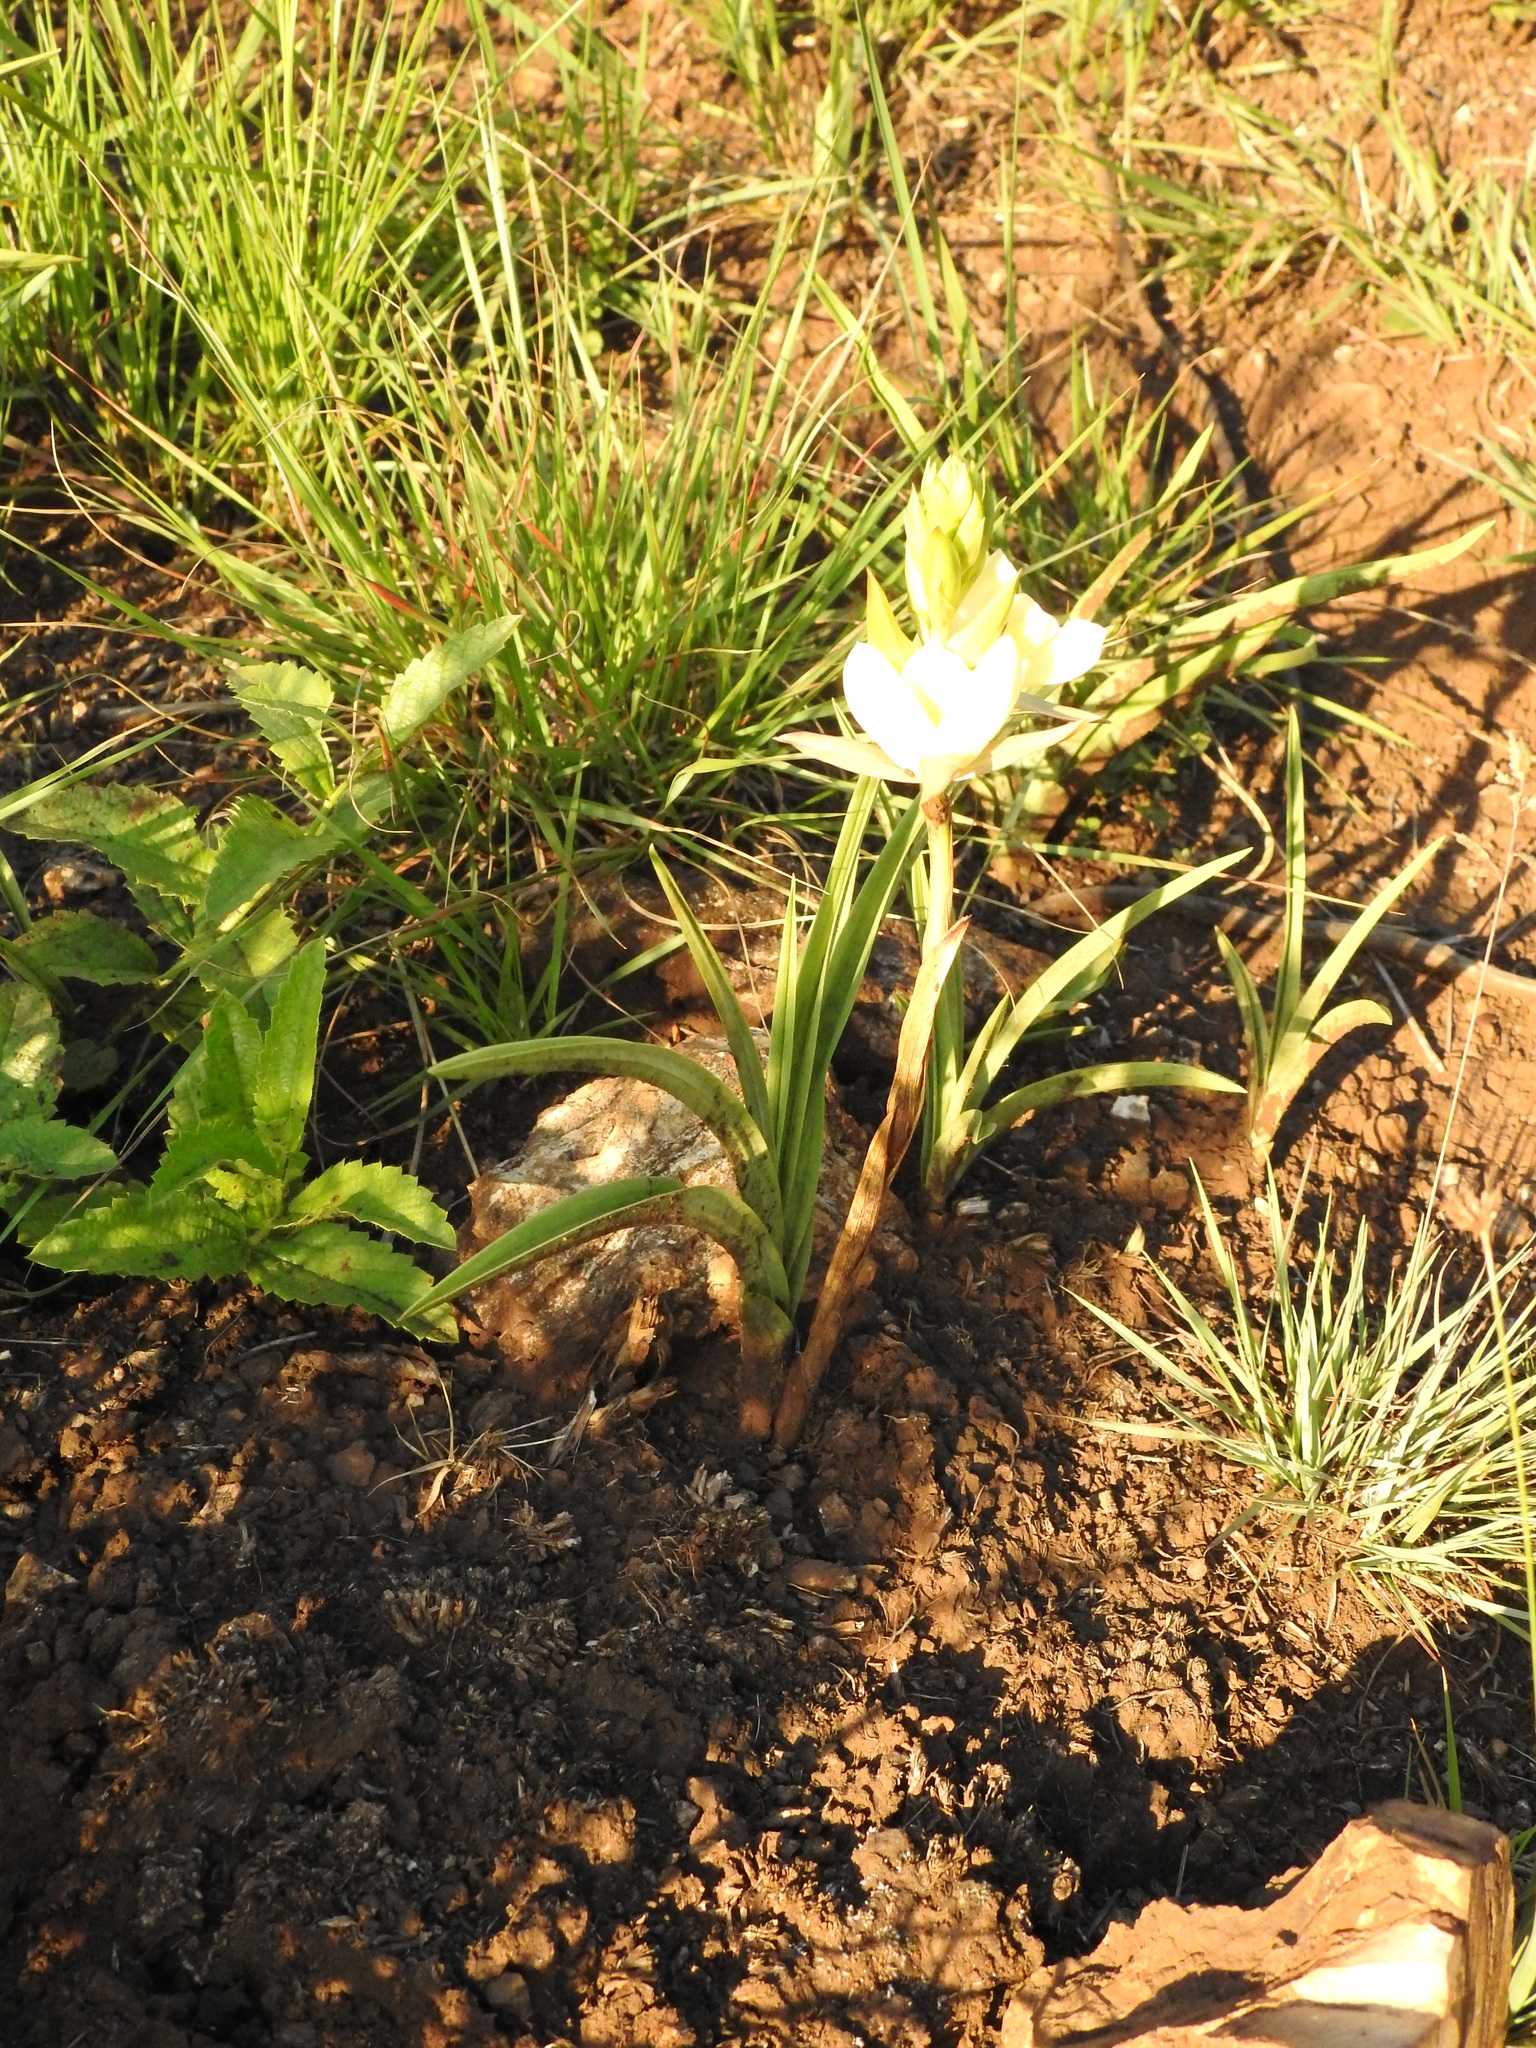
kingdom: Plantae
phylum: Tracheophyta
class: Liliopsida
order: Asparagales
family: Orchidaceae
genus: Eulophia
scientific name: Eulophia ovalis
